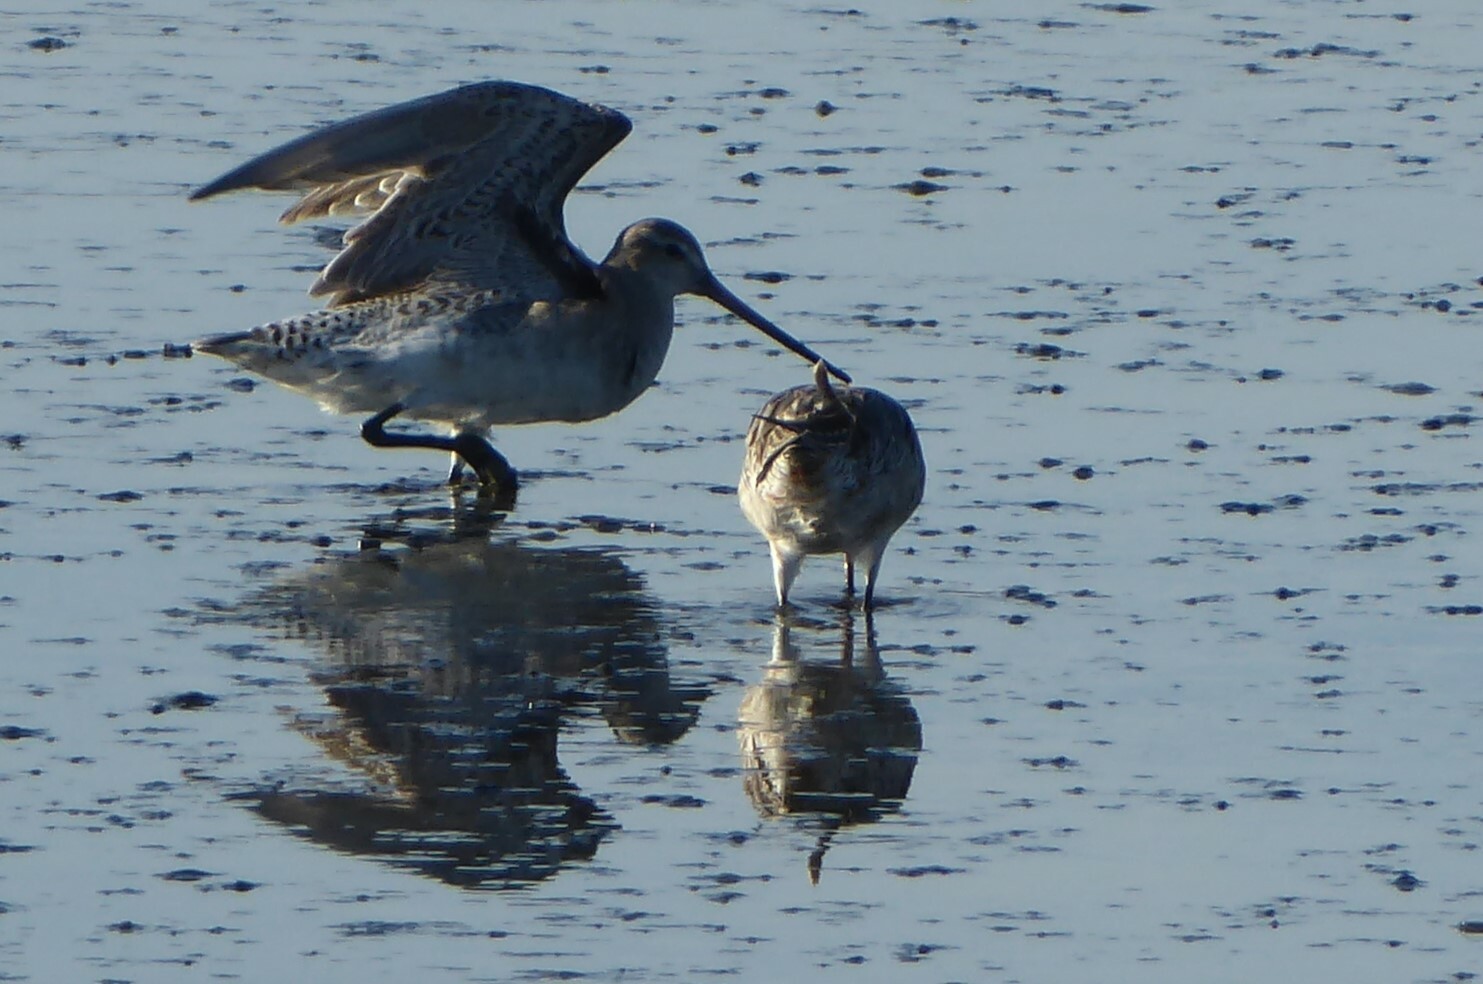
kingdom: Animalia
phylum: Chordata
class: Aves
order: Charadriiformes
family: Scolopacidae
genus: Limosa
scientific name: Limosa lapponica
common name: Bar-tailed godwit
